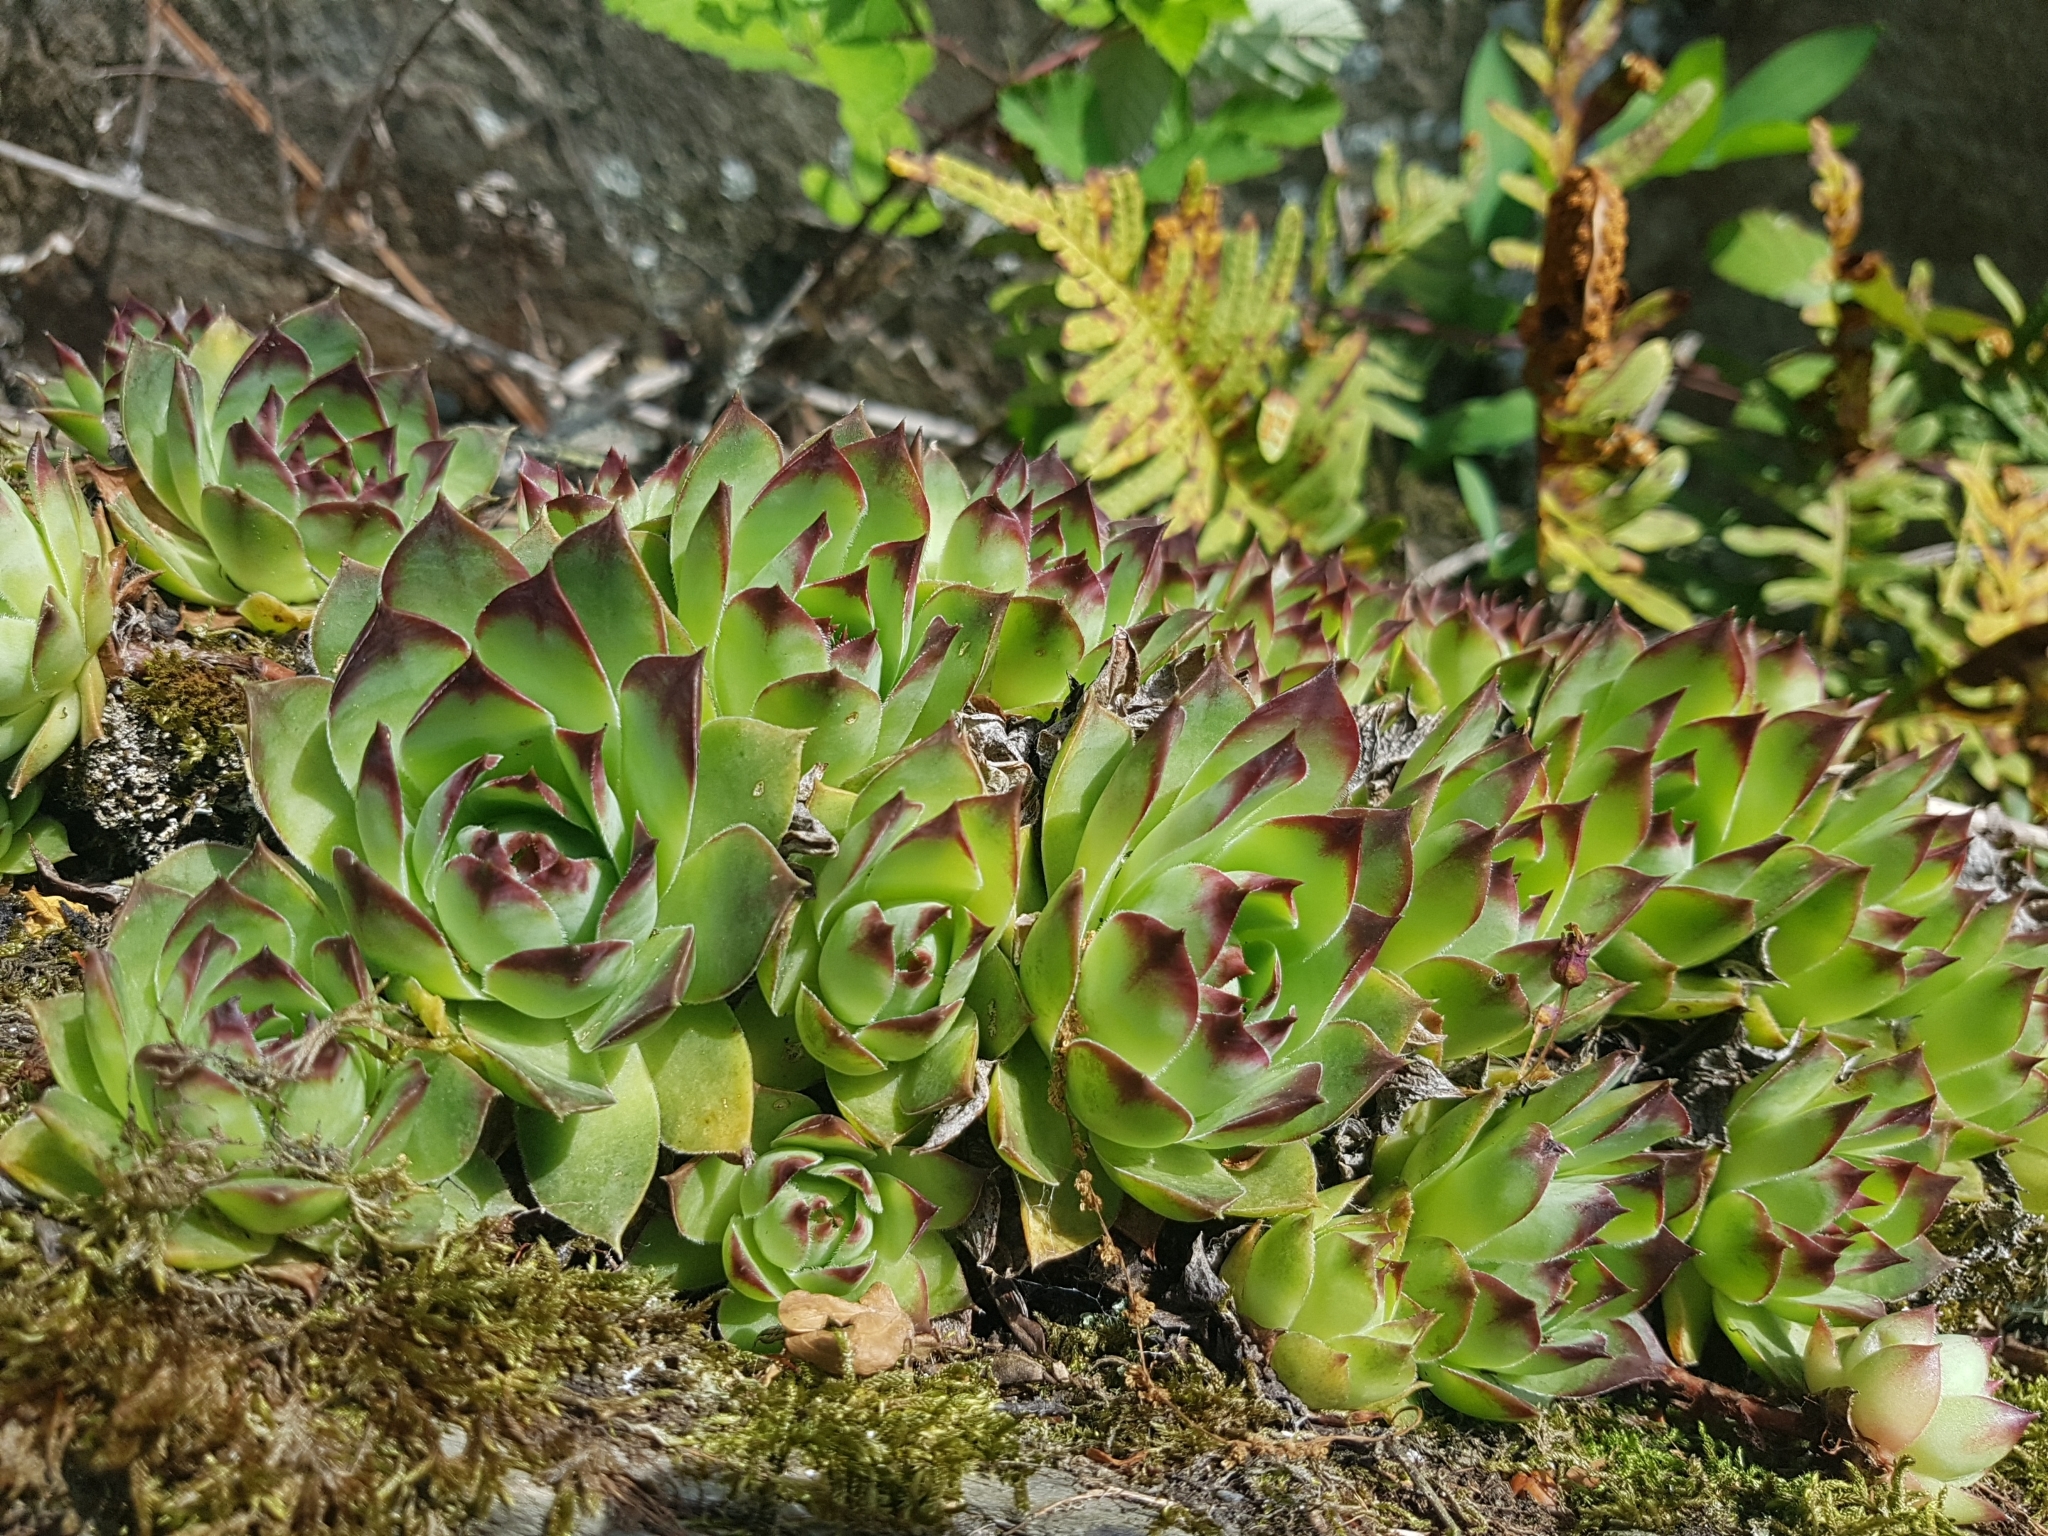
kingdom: Plantae
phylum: Tracheophyta
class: Magnoliopsida
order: Saxifragales
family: Crassulaceae
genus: Sempervivum
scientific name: Sempervivum tectorum
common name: House-leek
